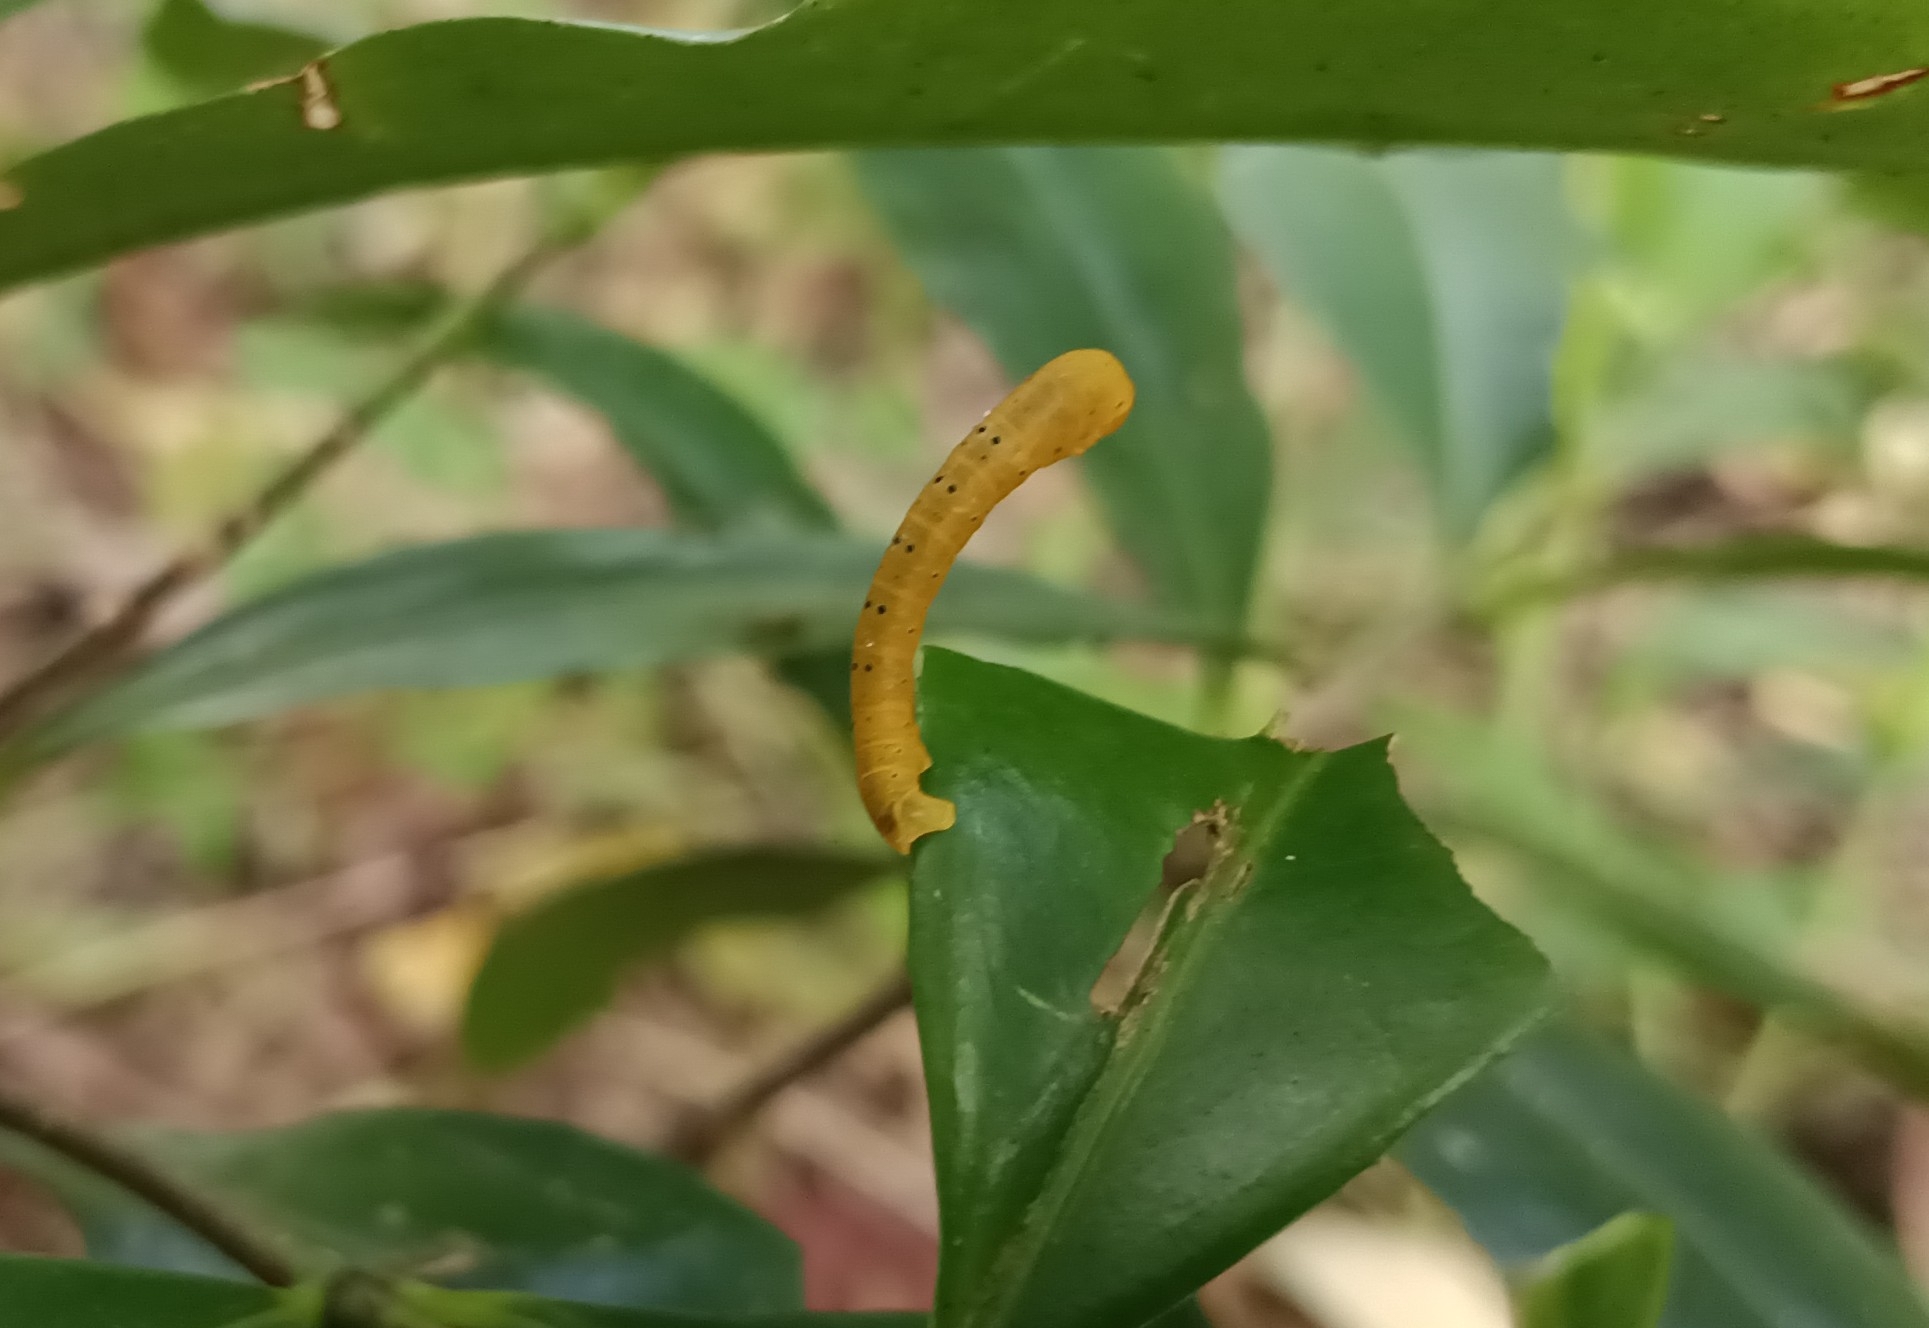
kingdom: Animalia
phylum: Arthropoda
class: Insecta
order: Lepidoptera
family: Geometridae
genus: Dysphania
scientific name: Dysphania percota
